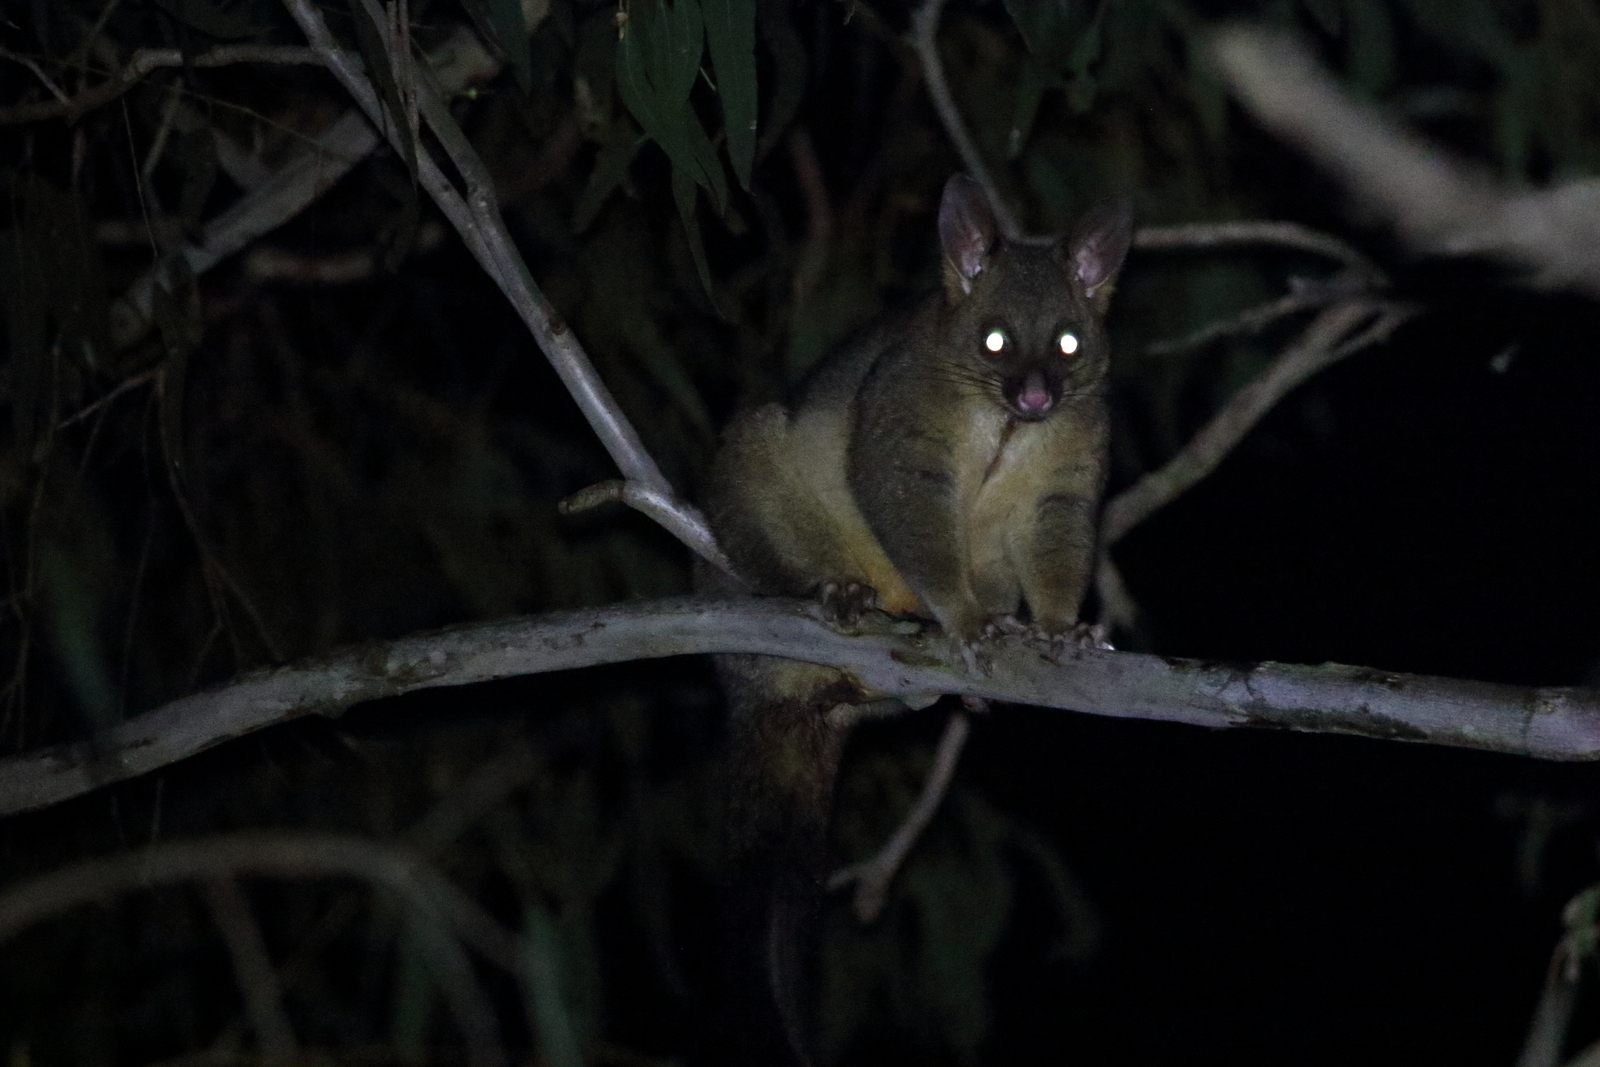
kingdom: Animalia
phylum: Chordata
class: Mammalia
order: Diprotodontia
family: Phalangeridae
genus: Trichosurus
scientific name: Trichosurus vulpecula
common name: Common brushtail
